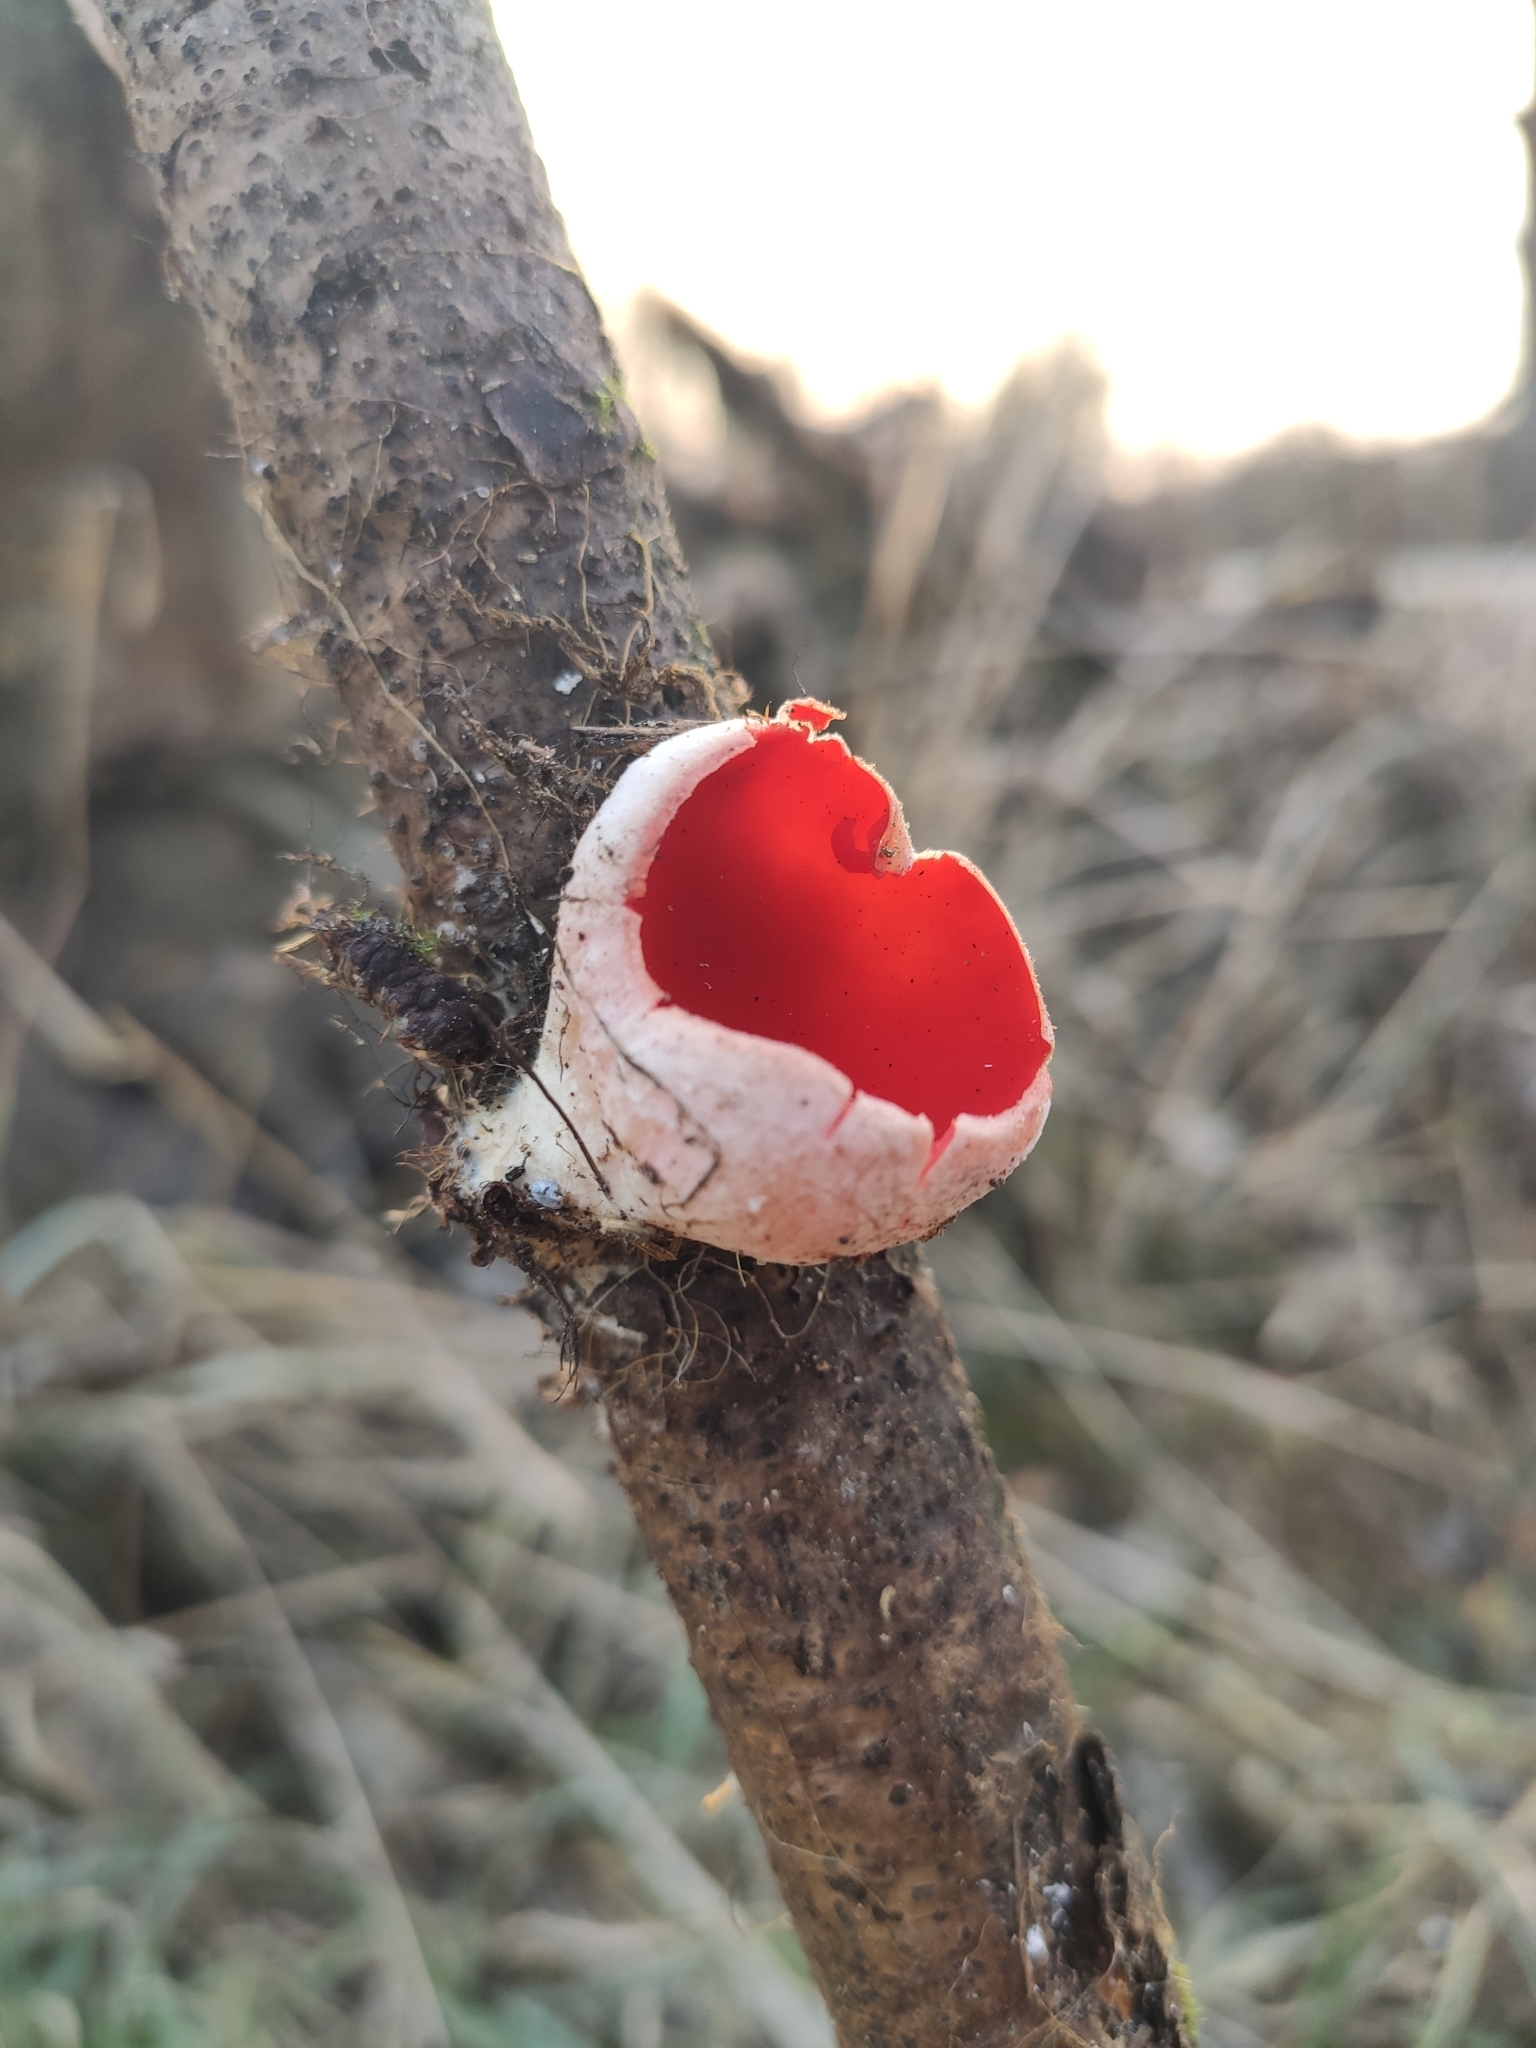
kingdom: Fungi
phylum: Ascomycota
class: Pezizomycetes
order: Pezizales
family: Sarcoscyphaceae
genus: Sarcoscypha
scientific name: Sarcoscypha
